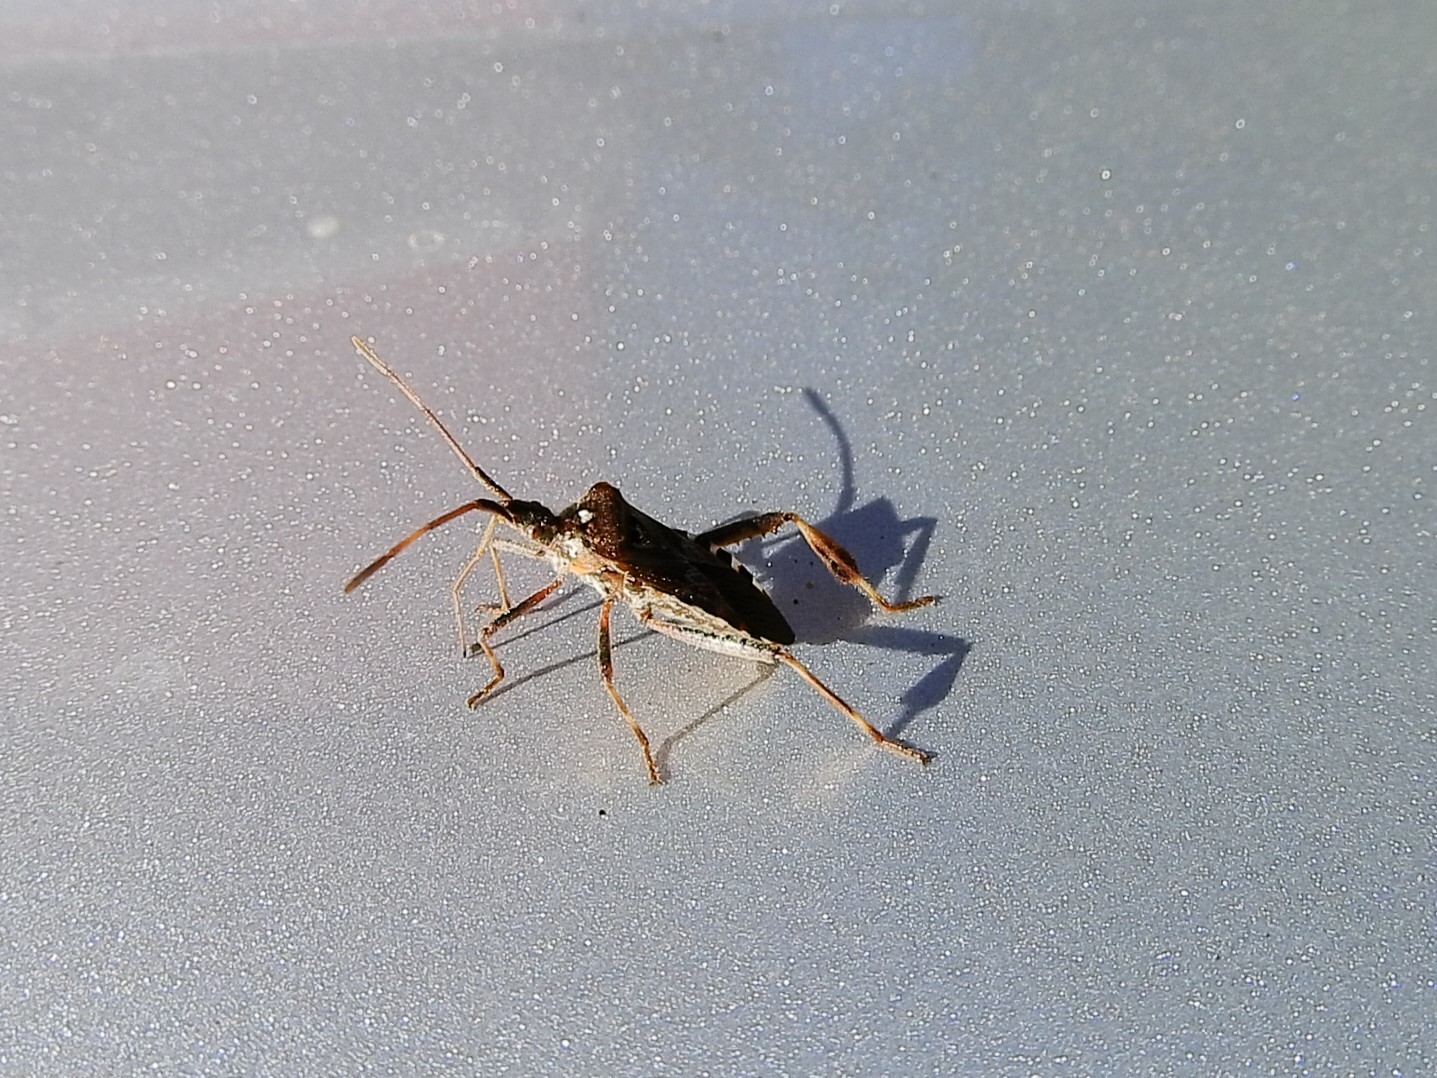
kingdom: Animalia
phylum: Arthropoda
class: Insecta
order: Hemiptera
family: Coreidae
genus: Leptoglossus
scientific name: Leptoglossus occidentalis
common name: Western conifer-seed bug
